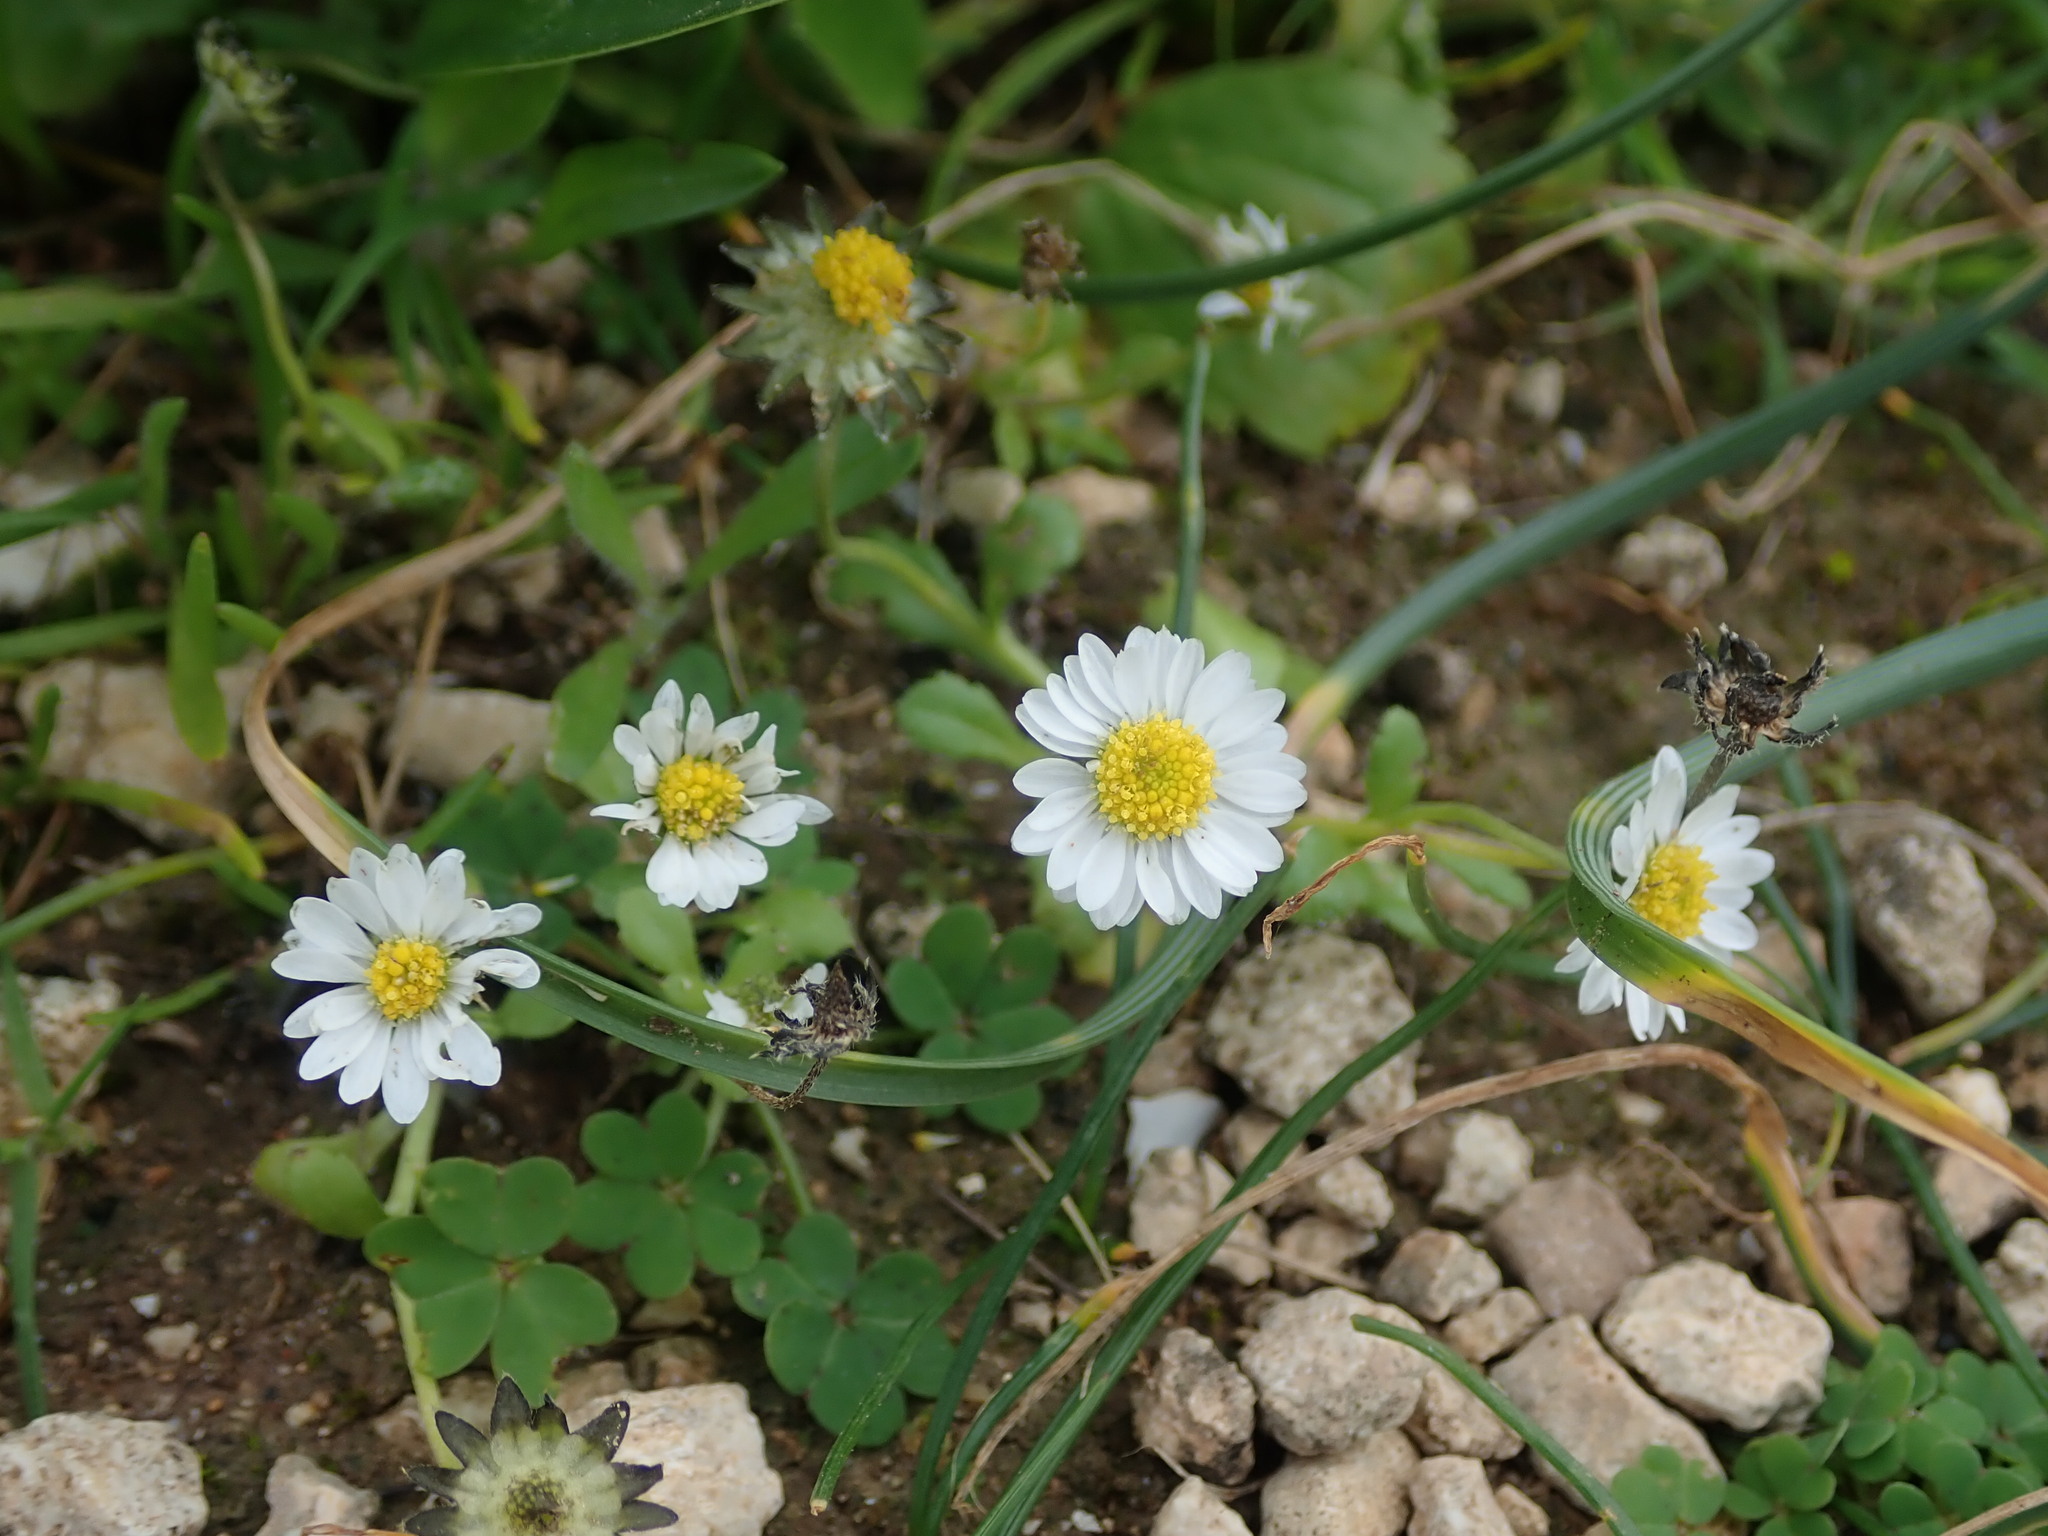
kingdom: Plantae
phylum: Tracheophyta
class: Magnoliopsida
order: Asterales
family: Asteraceae
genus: Bellis
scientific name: Bellis annua
